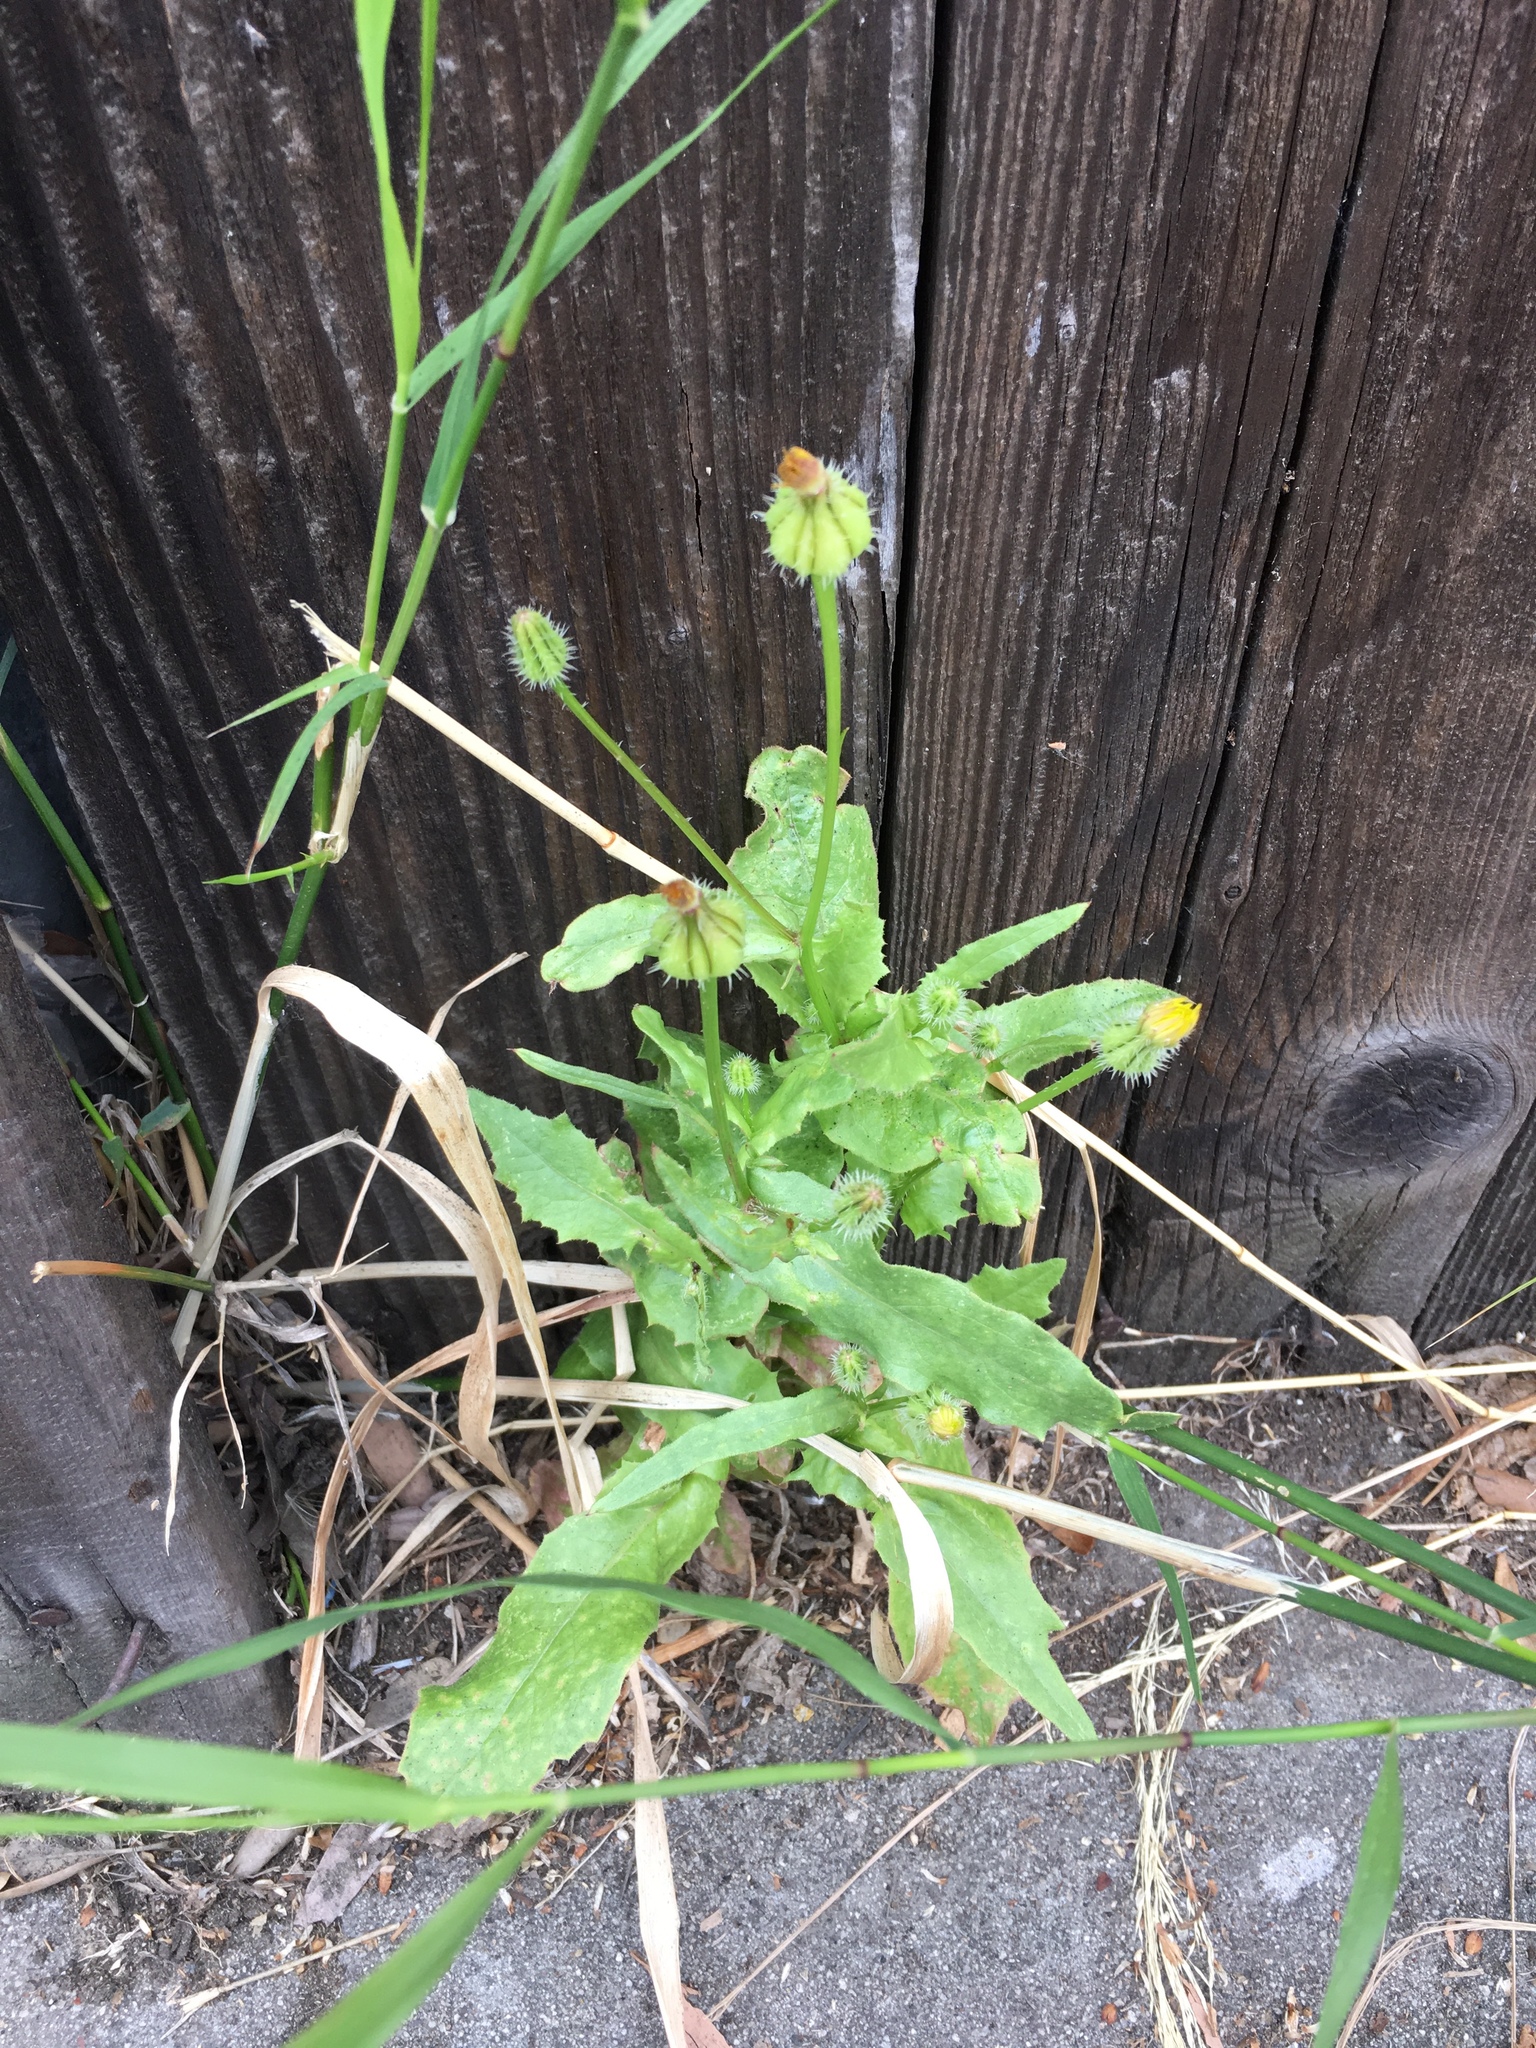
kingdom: Plantae
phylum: Tracheophyta
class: Magnoliopsida
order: Asterales
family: Asteraceae
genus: Urospermum
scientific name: Urospermum picroides
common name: False hawkbit
